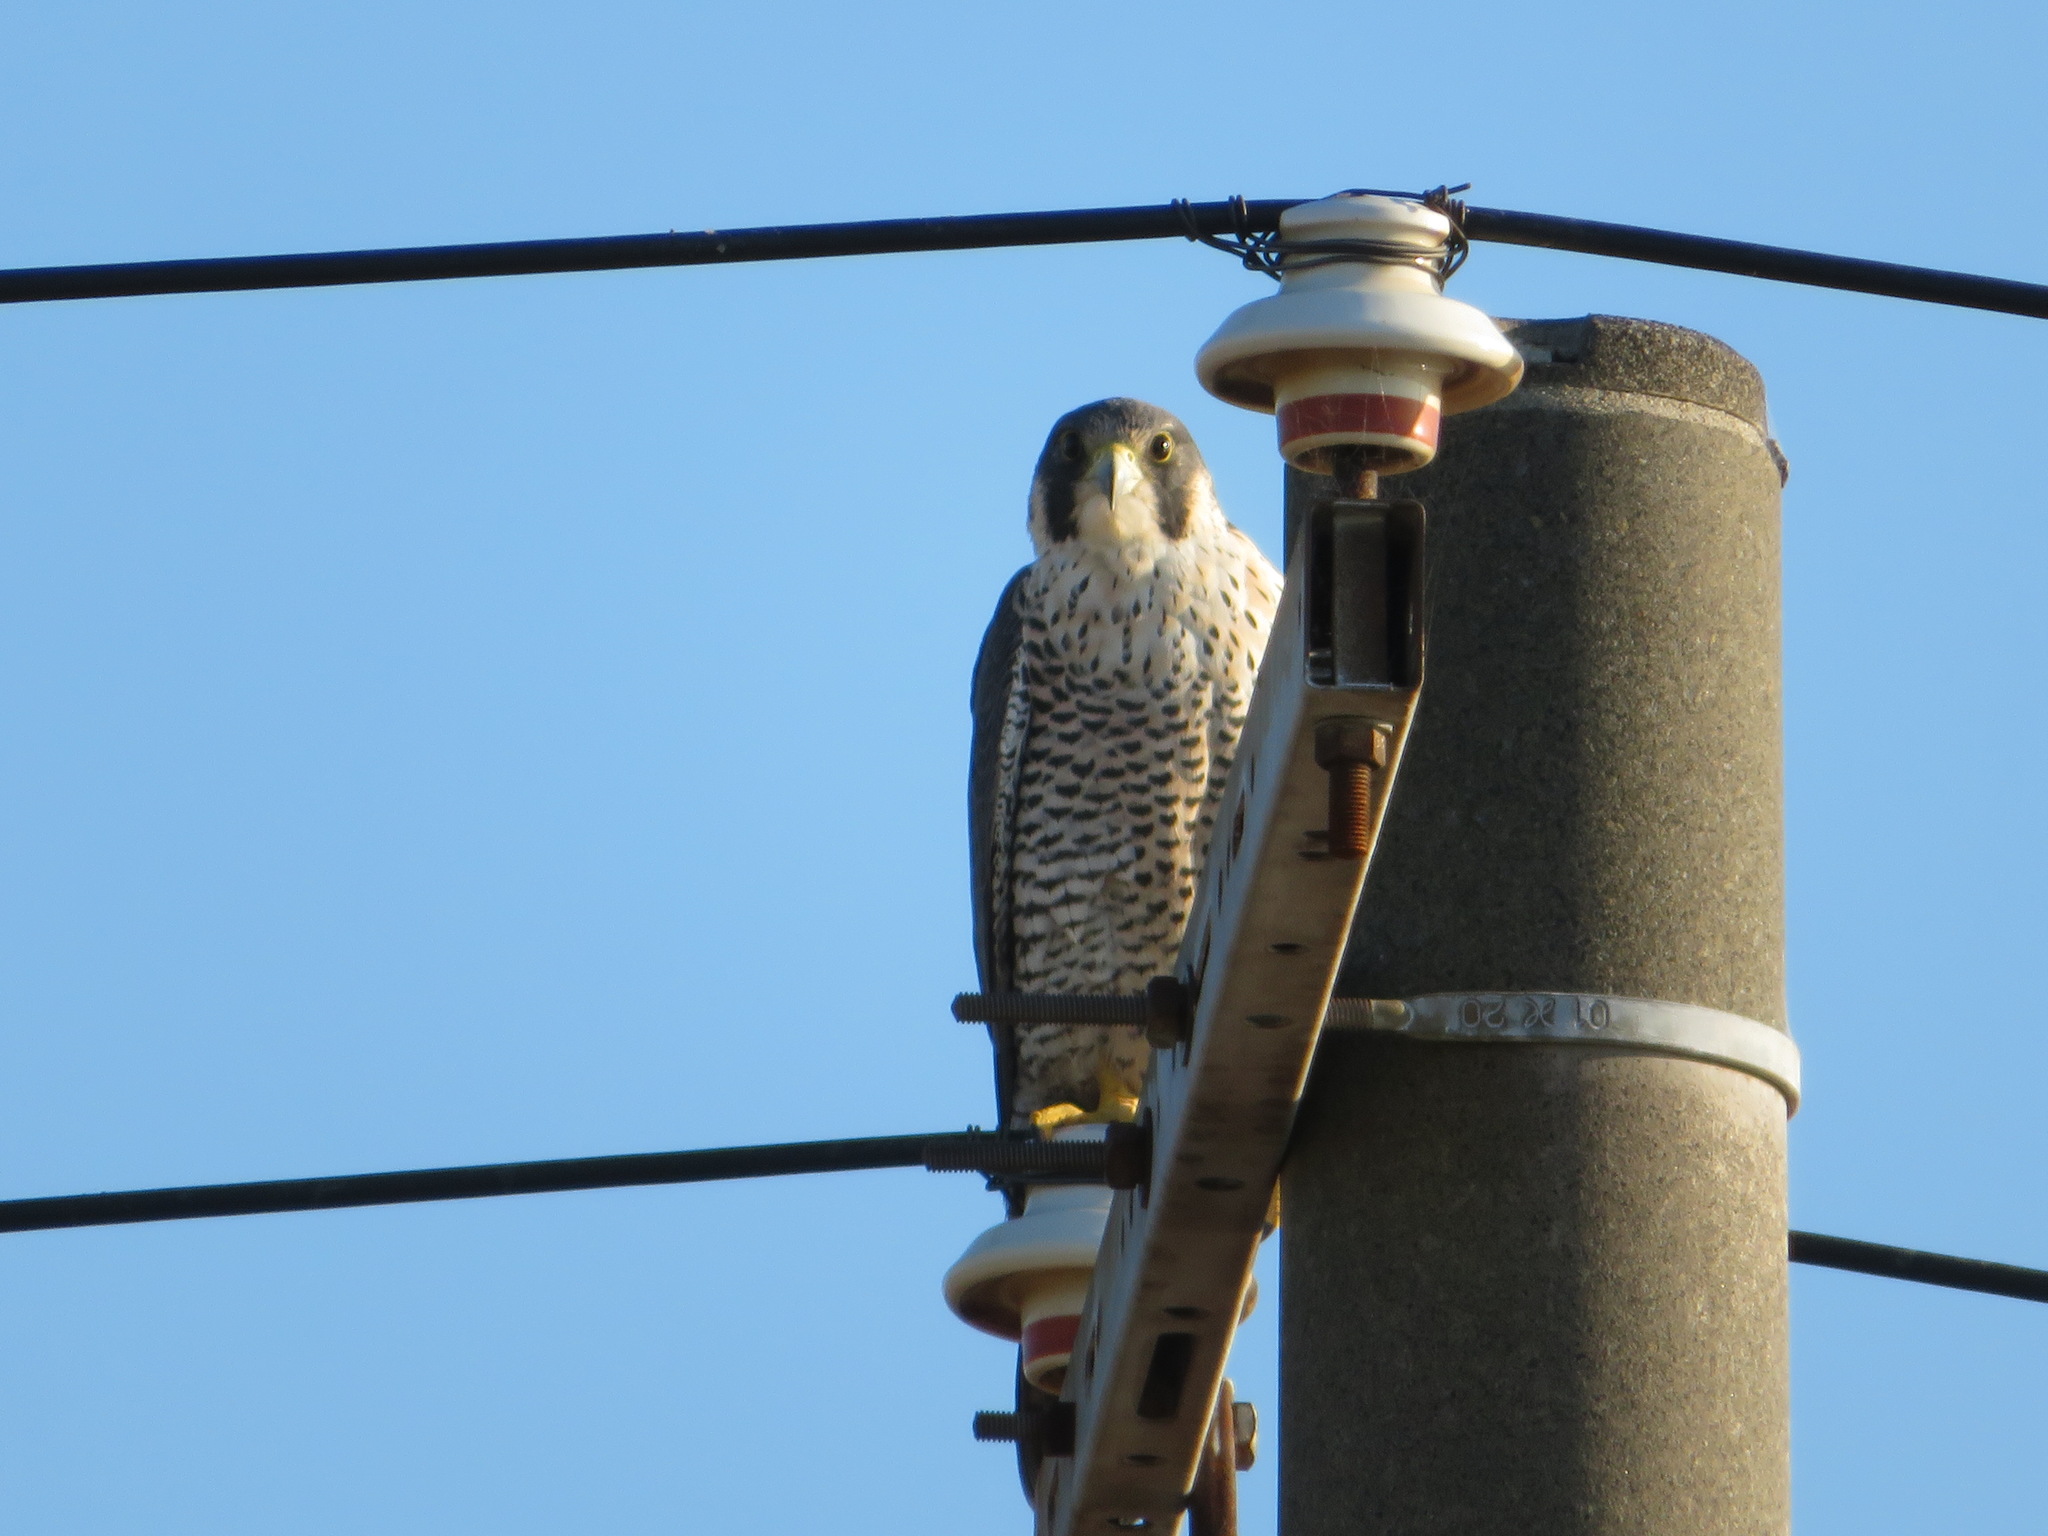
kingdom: Animalia
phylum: Chordata
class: Aves
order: Falconiformes
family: Falconidae
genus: Falco
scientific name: Falco peregrinus
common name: Peregrine falcon
